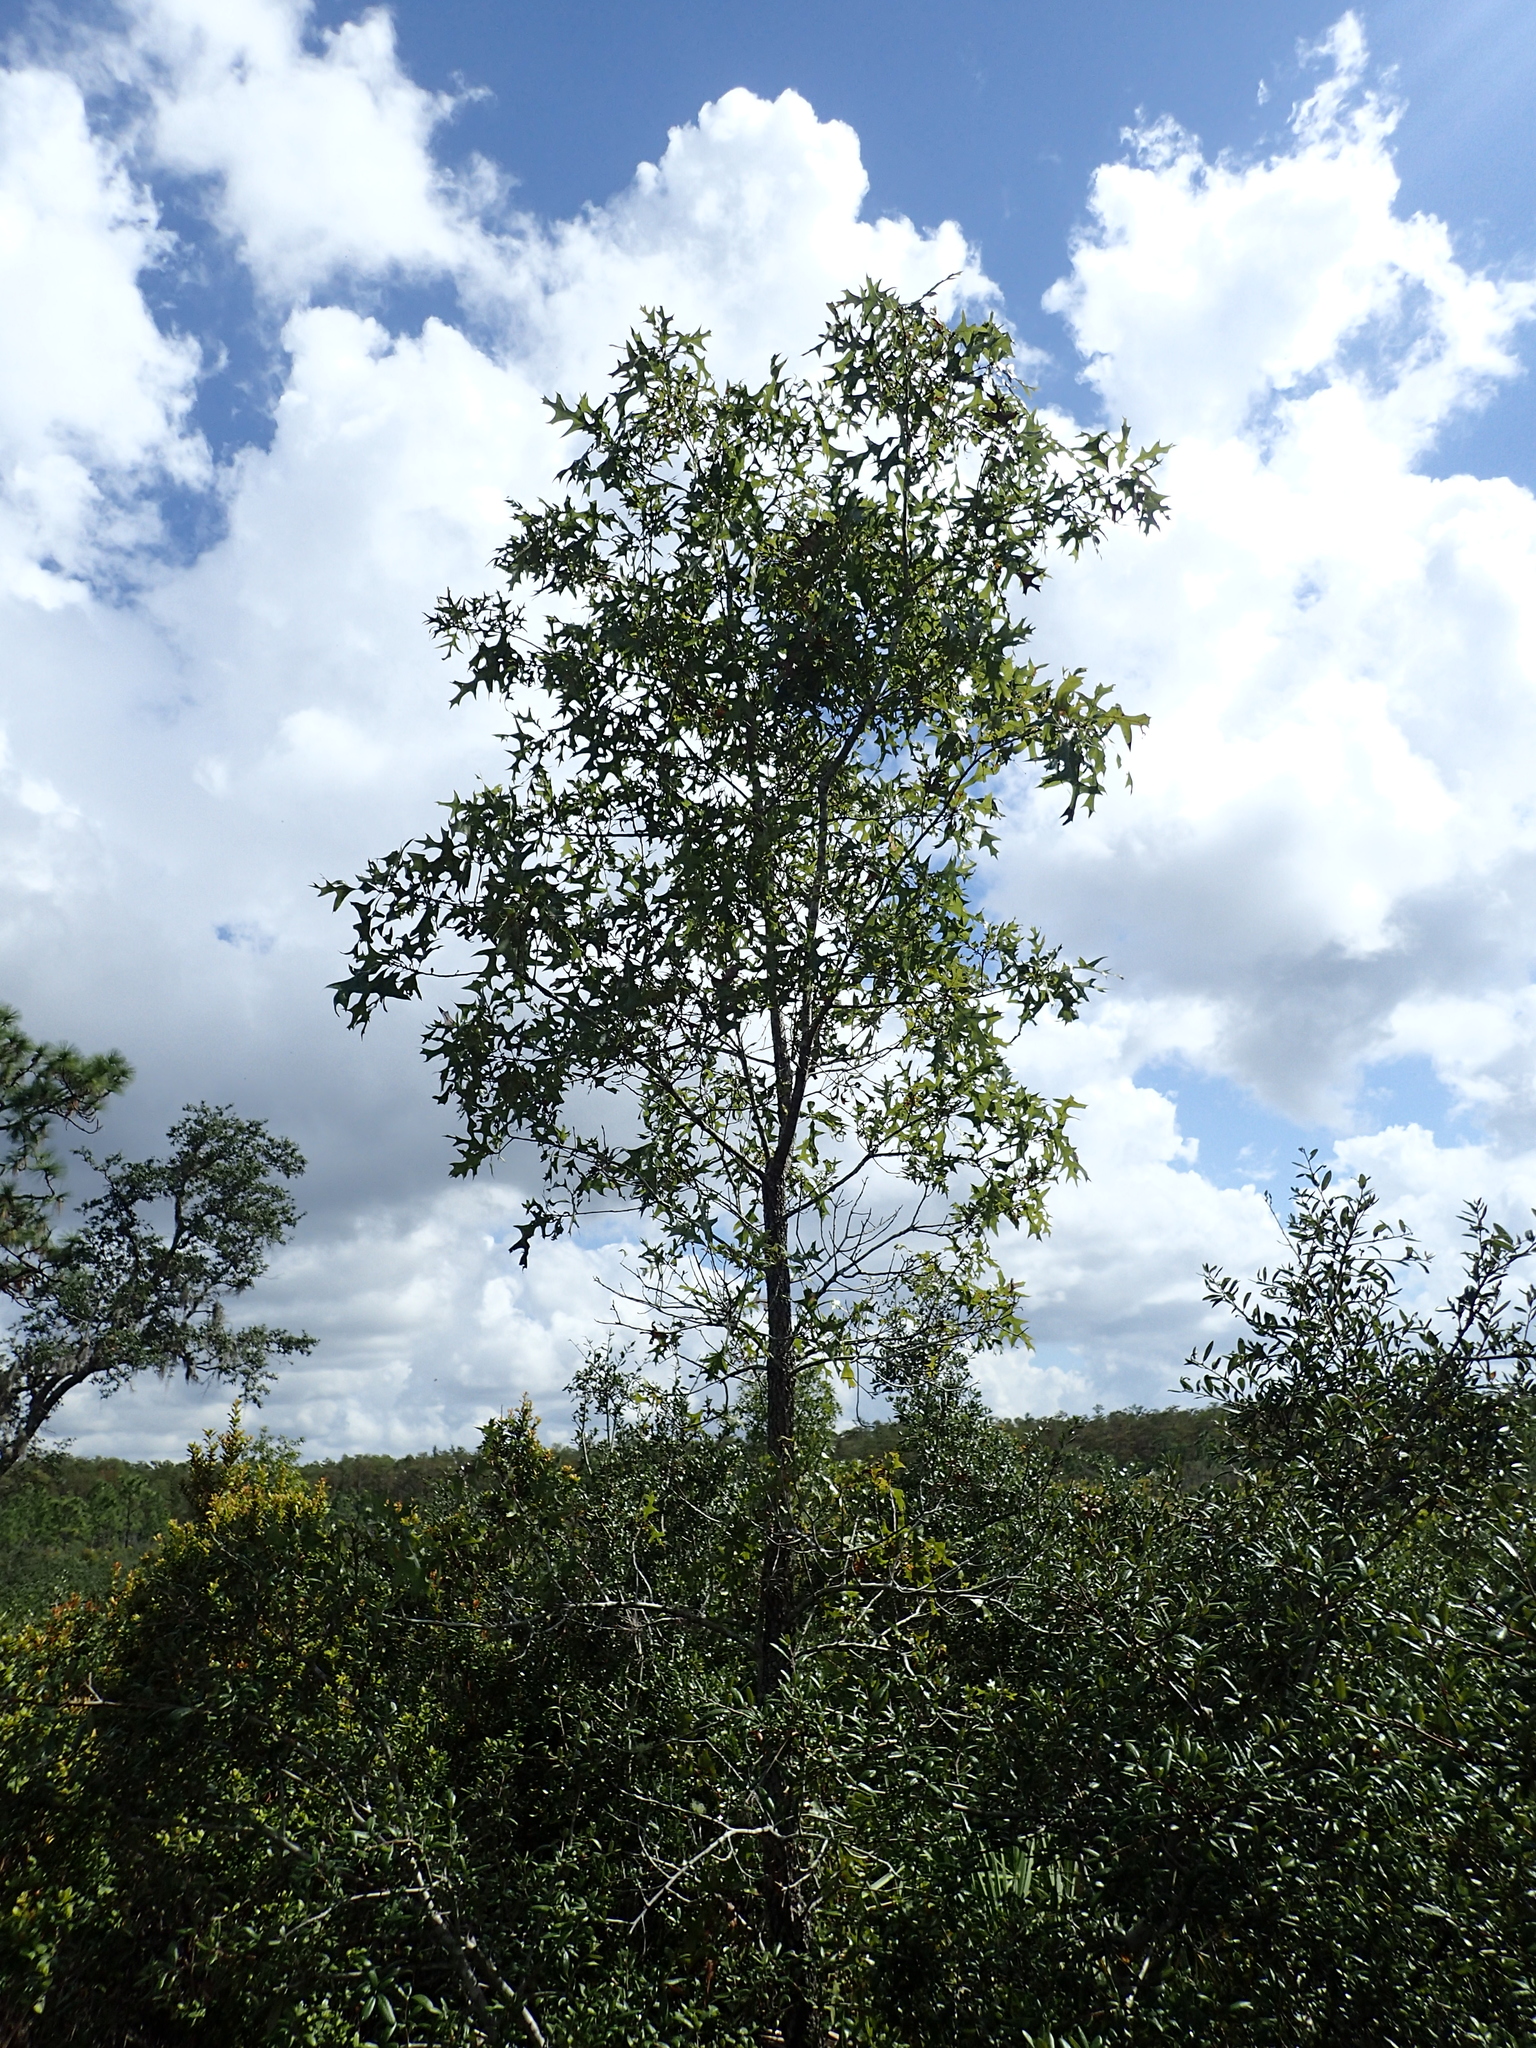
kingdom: Plantae
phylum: Tracheophyta
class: Magnoliopsida
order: Fagales
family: Fagaceae
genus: Quercus
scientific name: Quercus laevis
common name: Turkey oak
